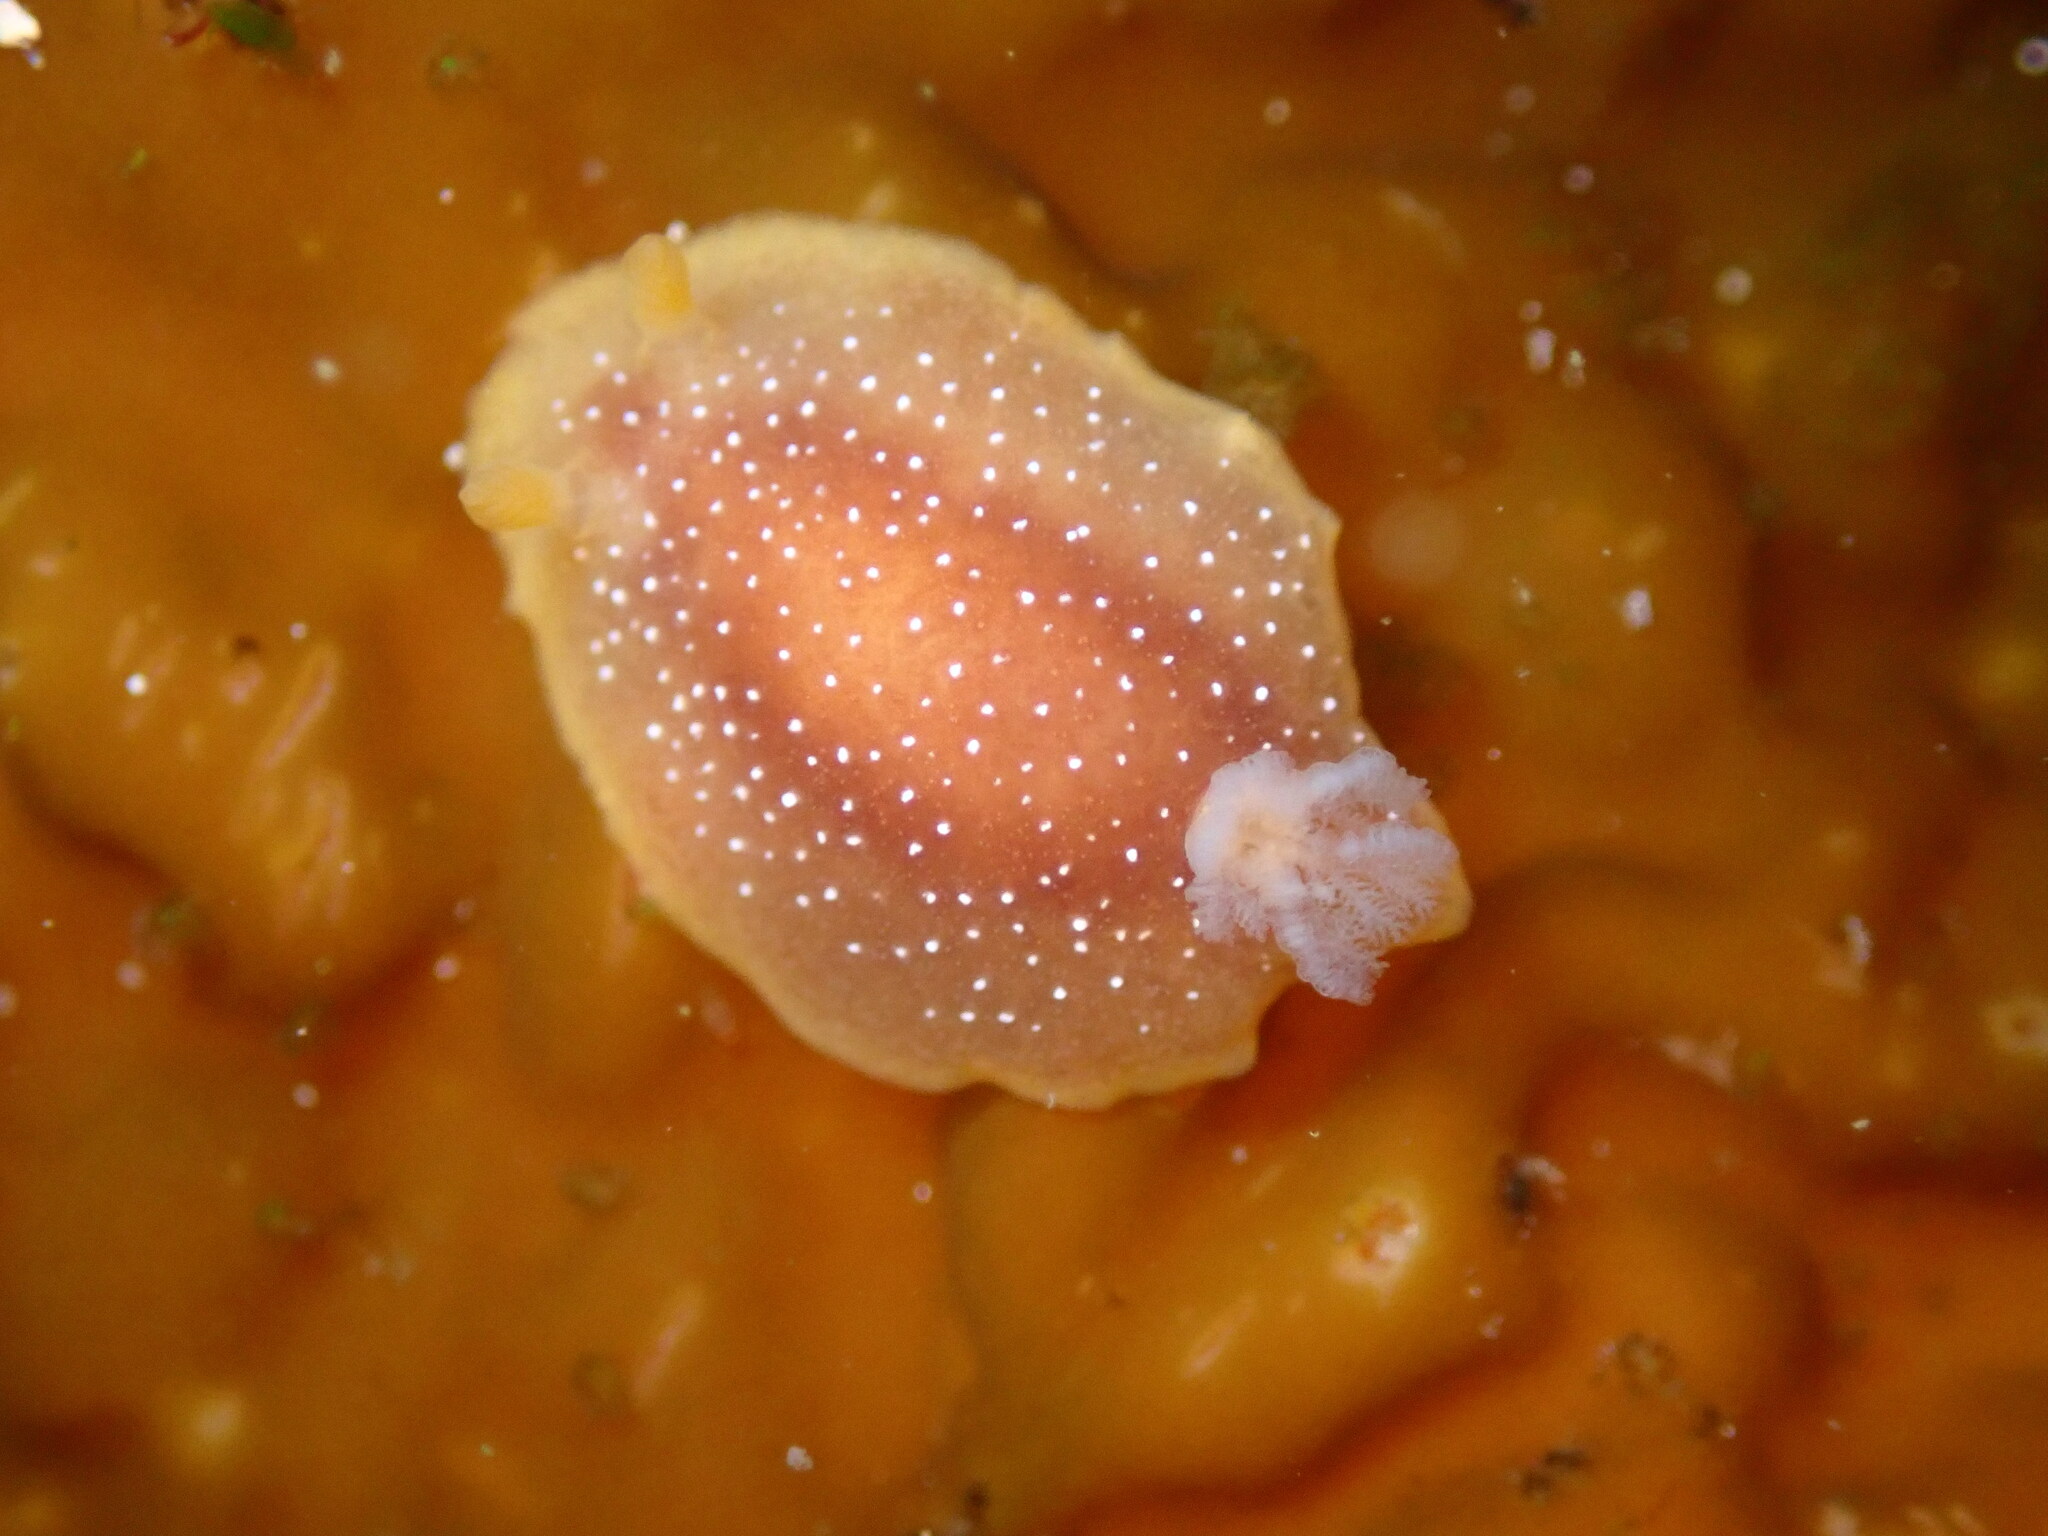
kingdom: Animalia
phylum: Mollusca
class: Gastropoda
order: Nudibranchia
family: Dendrodorididae
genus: Doriopsilla
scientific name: Doriopsilla albopunctata
